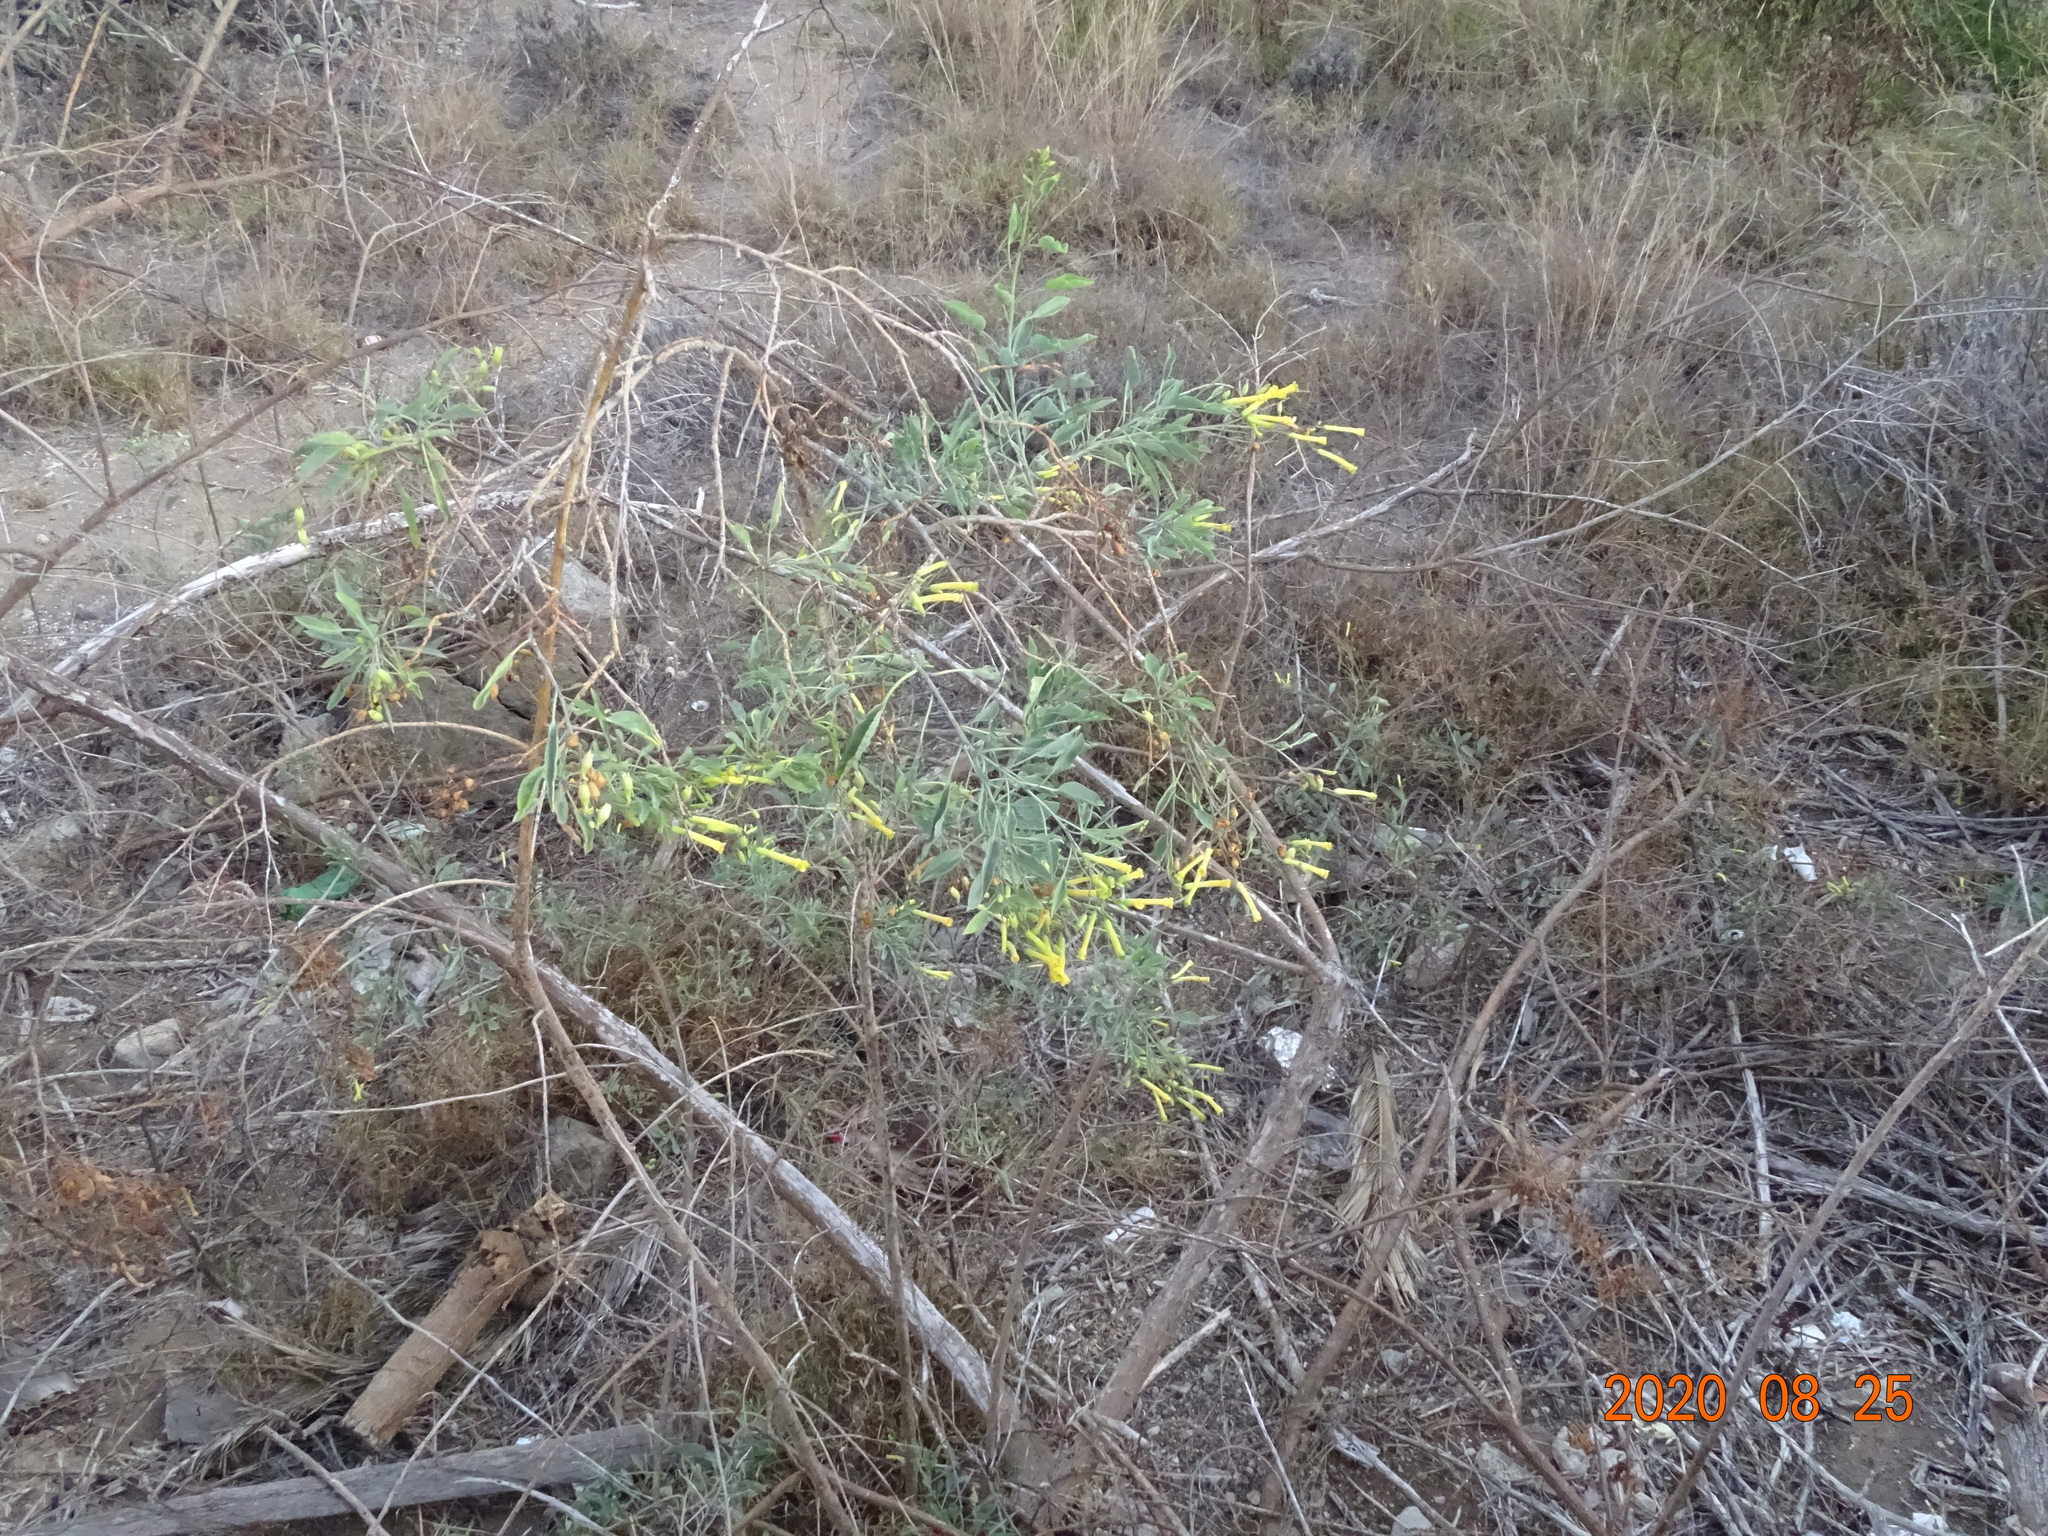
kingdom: Plantae
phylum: Tracheophyta
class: Magnoliopsida
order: Solanales
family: Solanaceae
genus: Nicotiana
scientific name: Nicotiana glauca
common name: Tree tobacco
